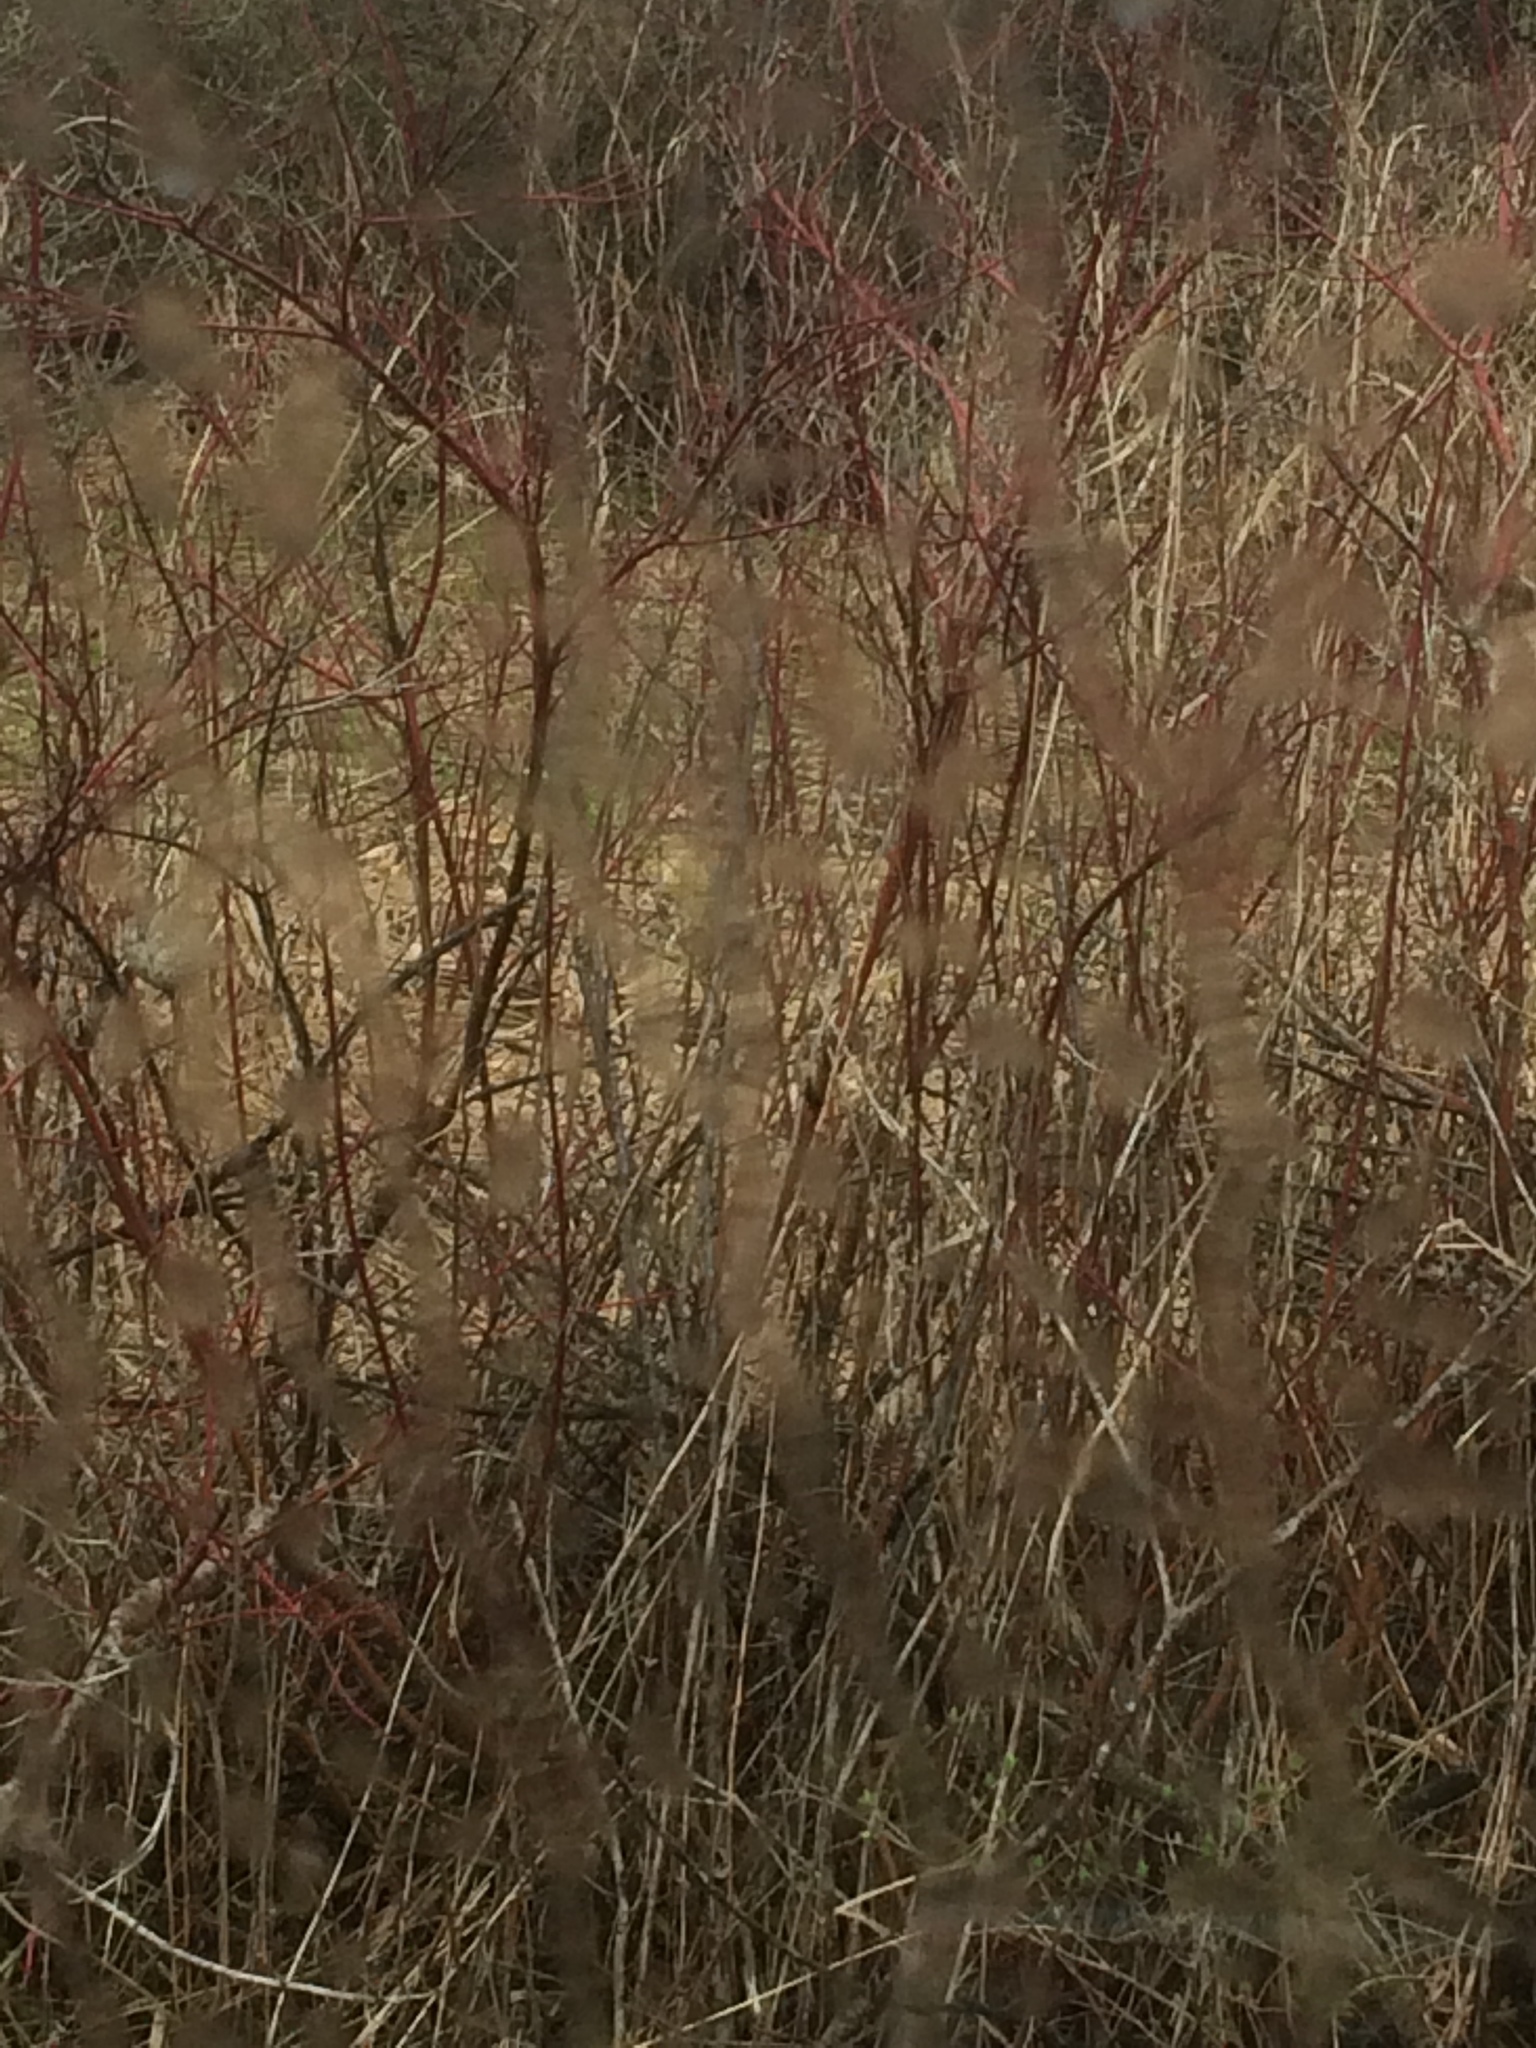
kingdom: Plantae
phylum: Tracheophyta
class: Magnoliopsida
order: Cornales
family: Cornaceae
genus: Cornus
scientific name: Cornus sericea
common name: Red-osier dogwood
